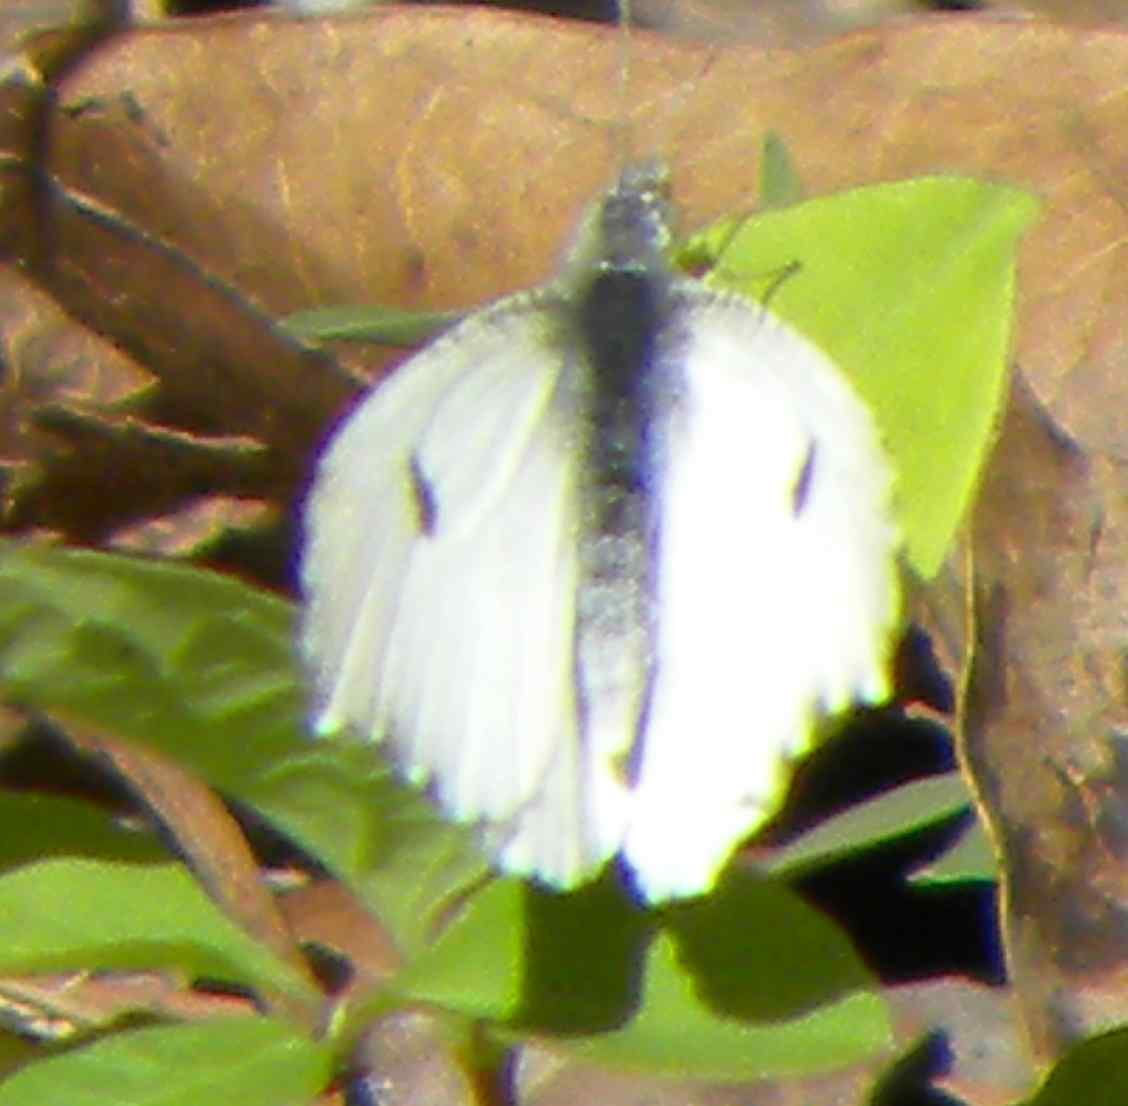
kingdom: Animalia
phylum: Arthropoda
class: Insecta
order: Lepidoptera
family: Pieridae
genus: Anthocharis
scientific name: Anthocharis midea
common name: Falcate orangetip
